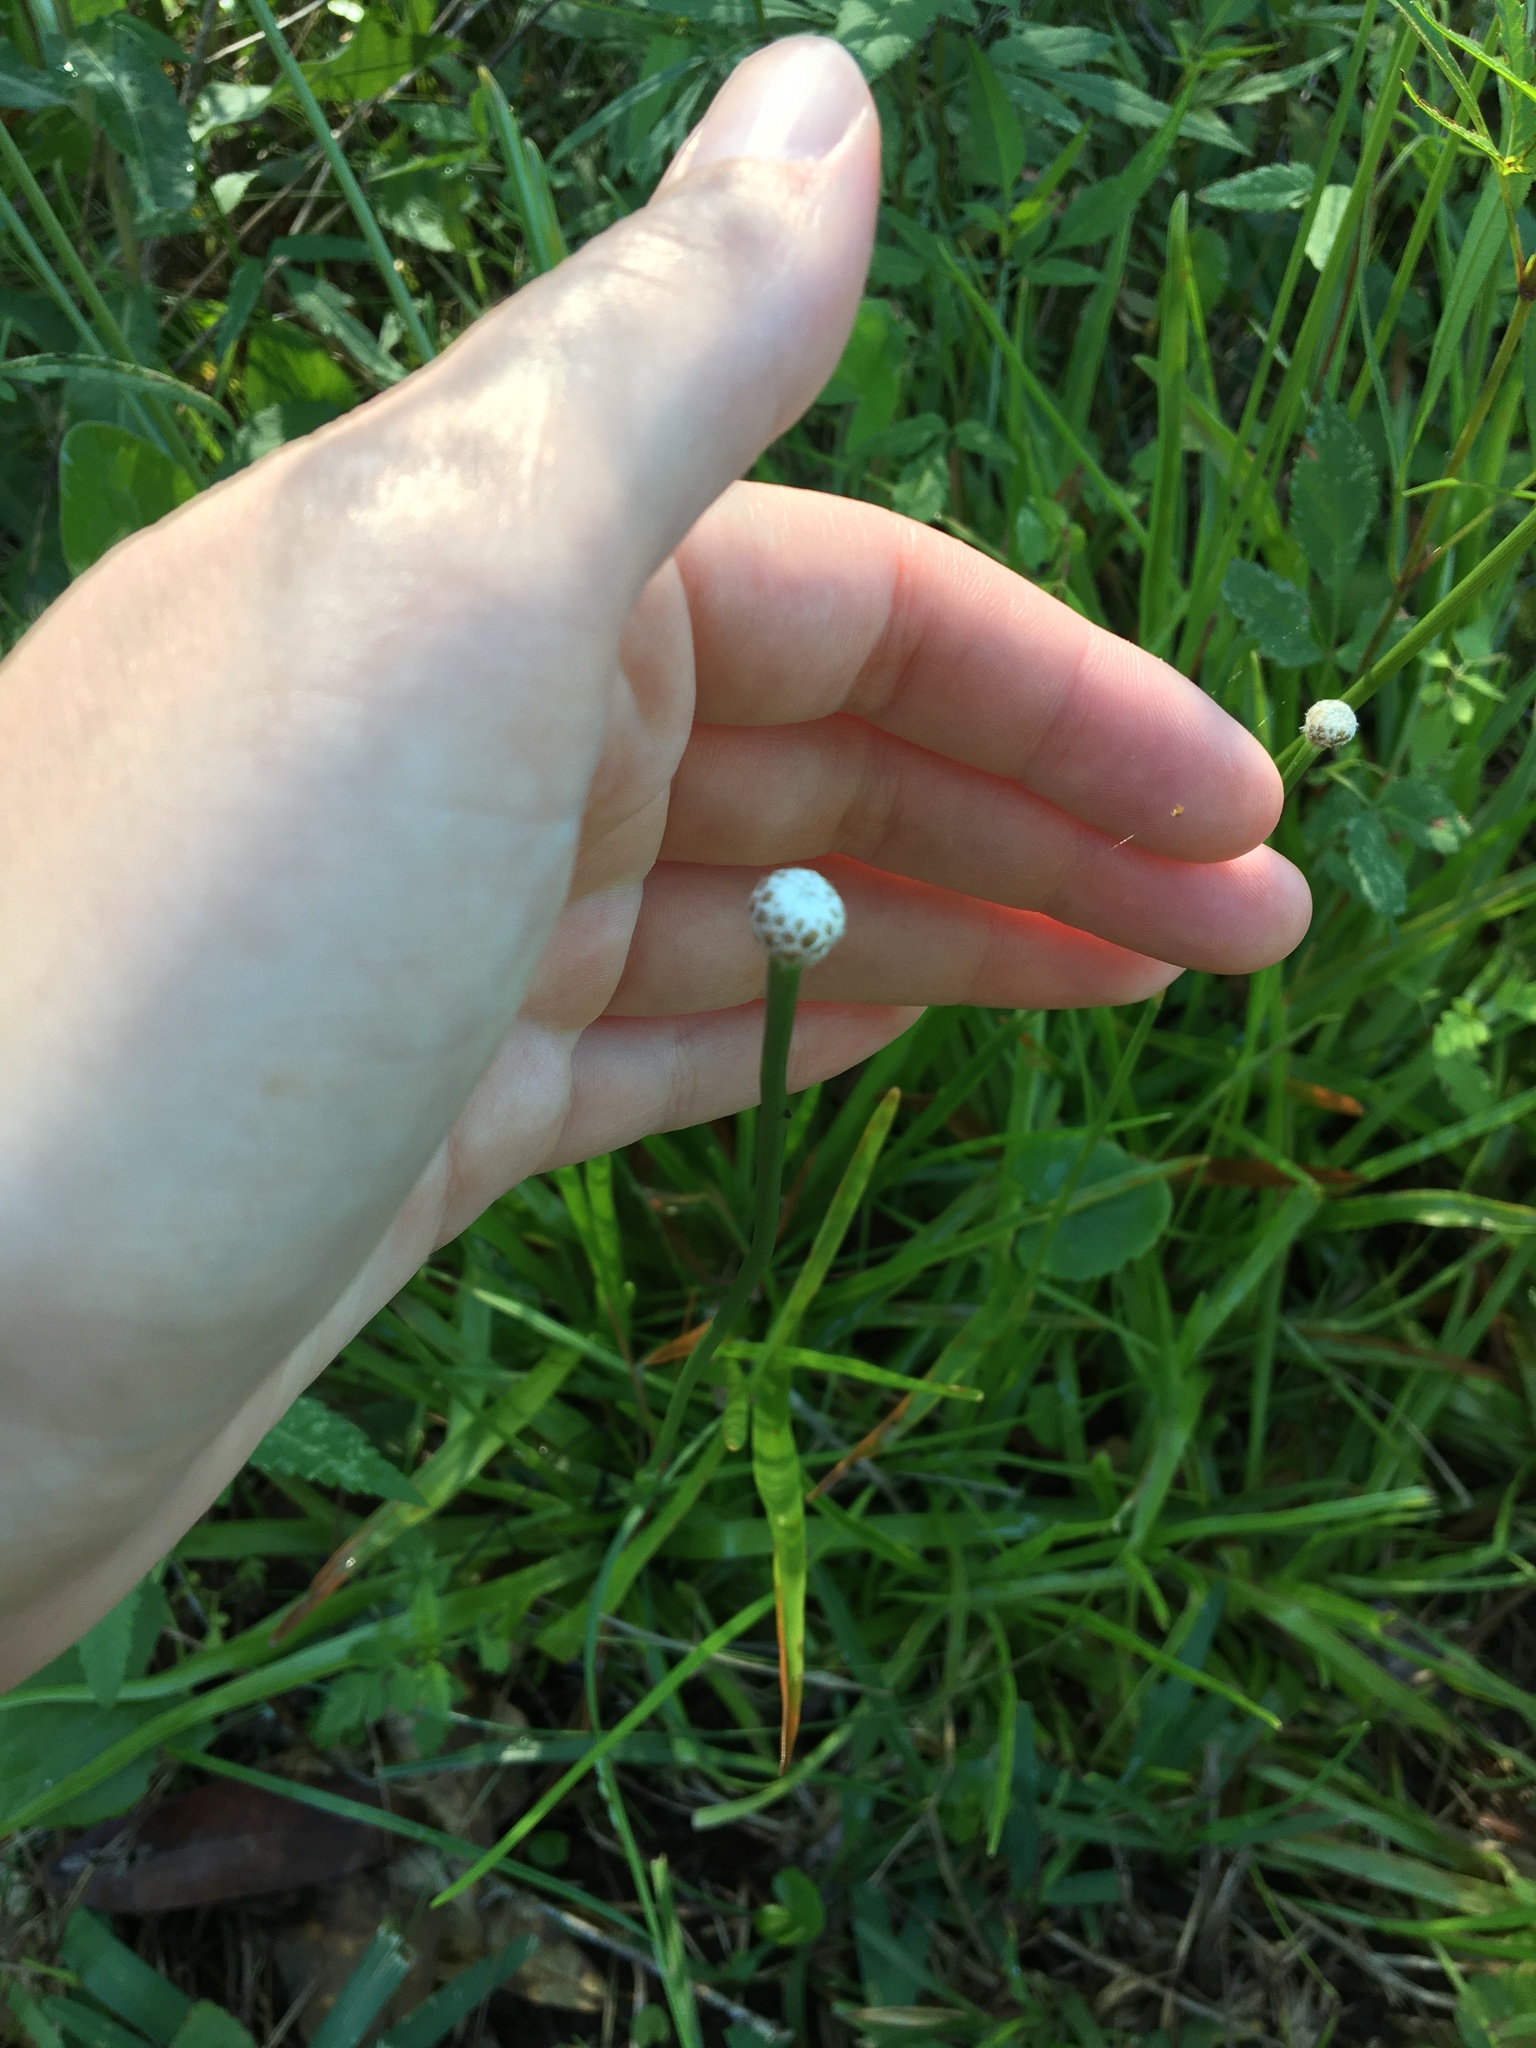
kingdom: Plantae
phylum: Tracheophyta
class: Liliopsida
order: Poales
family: Eriocaulaceae
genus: Eriocaulon
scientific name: Eriocaulon decangulare
